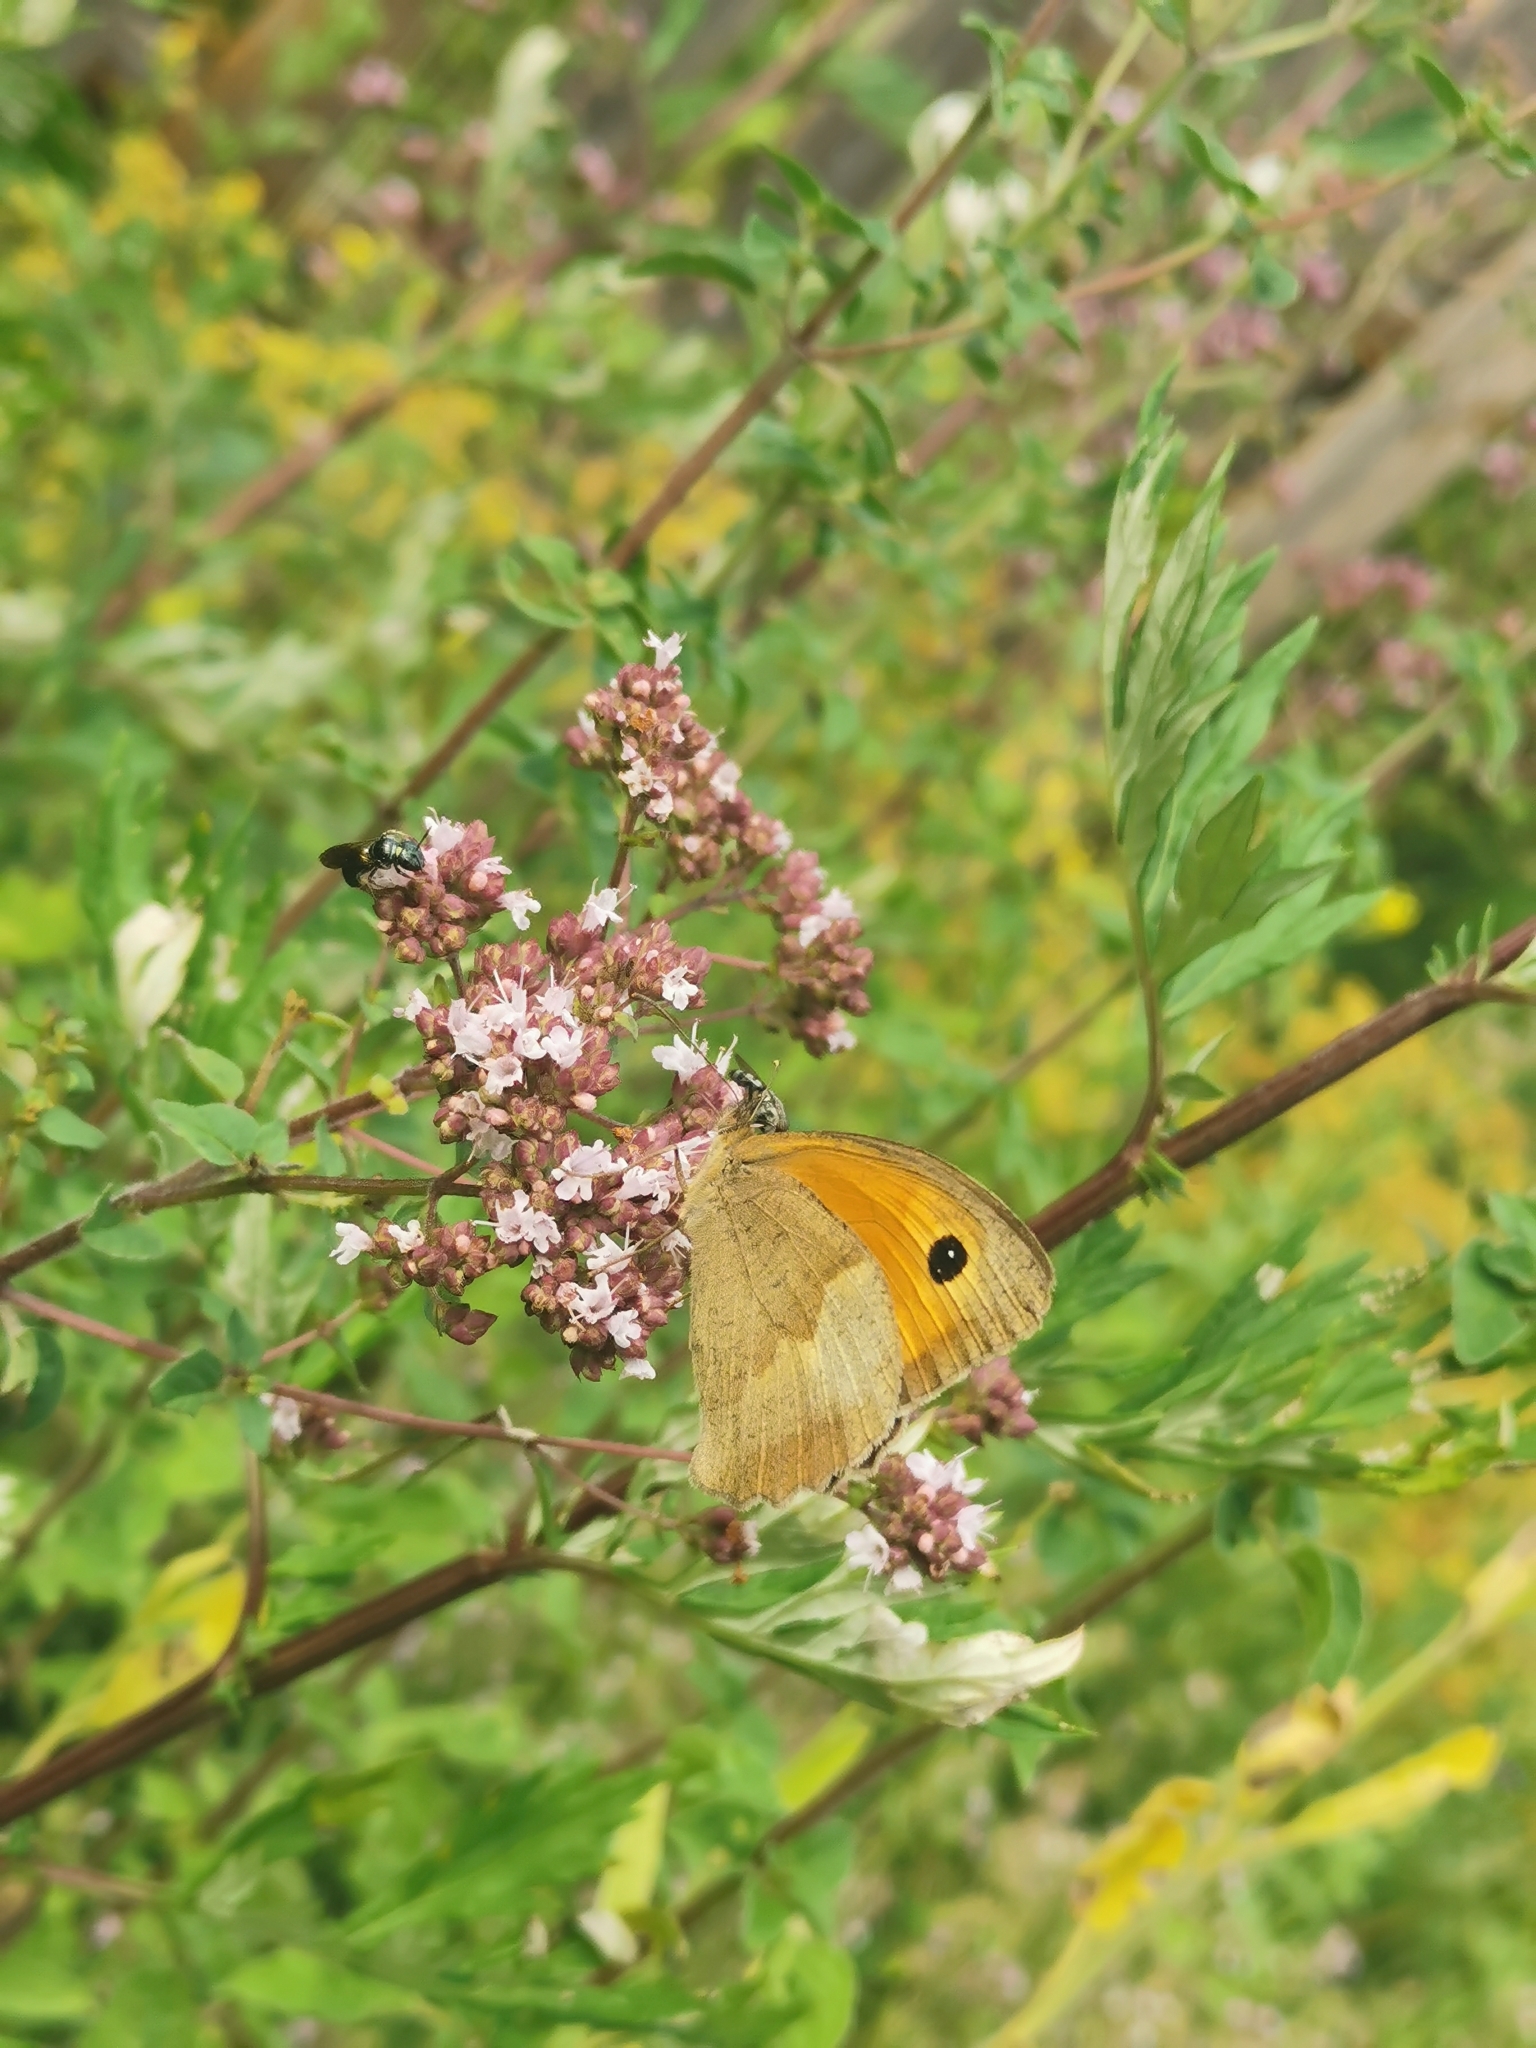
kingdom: Animalia
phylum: Arthropoda
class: Insecta
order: Lepidoptera
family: Nymphalidae
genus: Maniola
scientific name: Maniola jurtina
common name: Meadow brown
